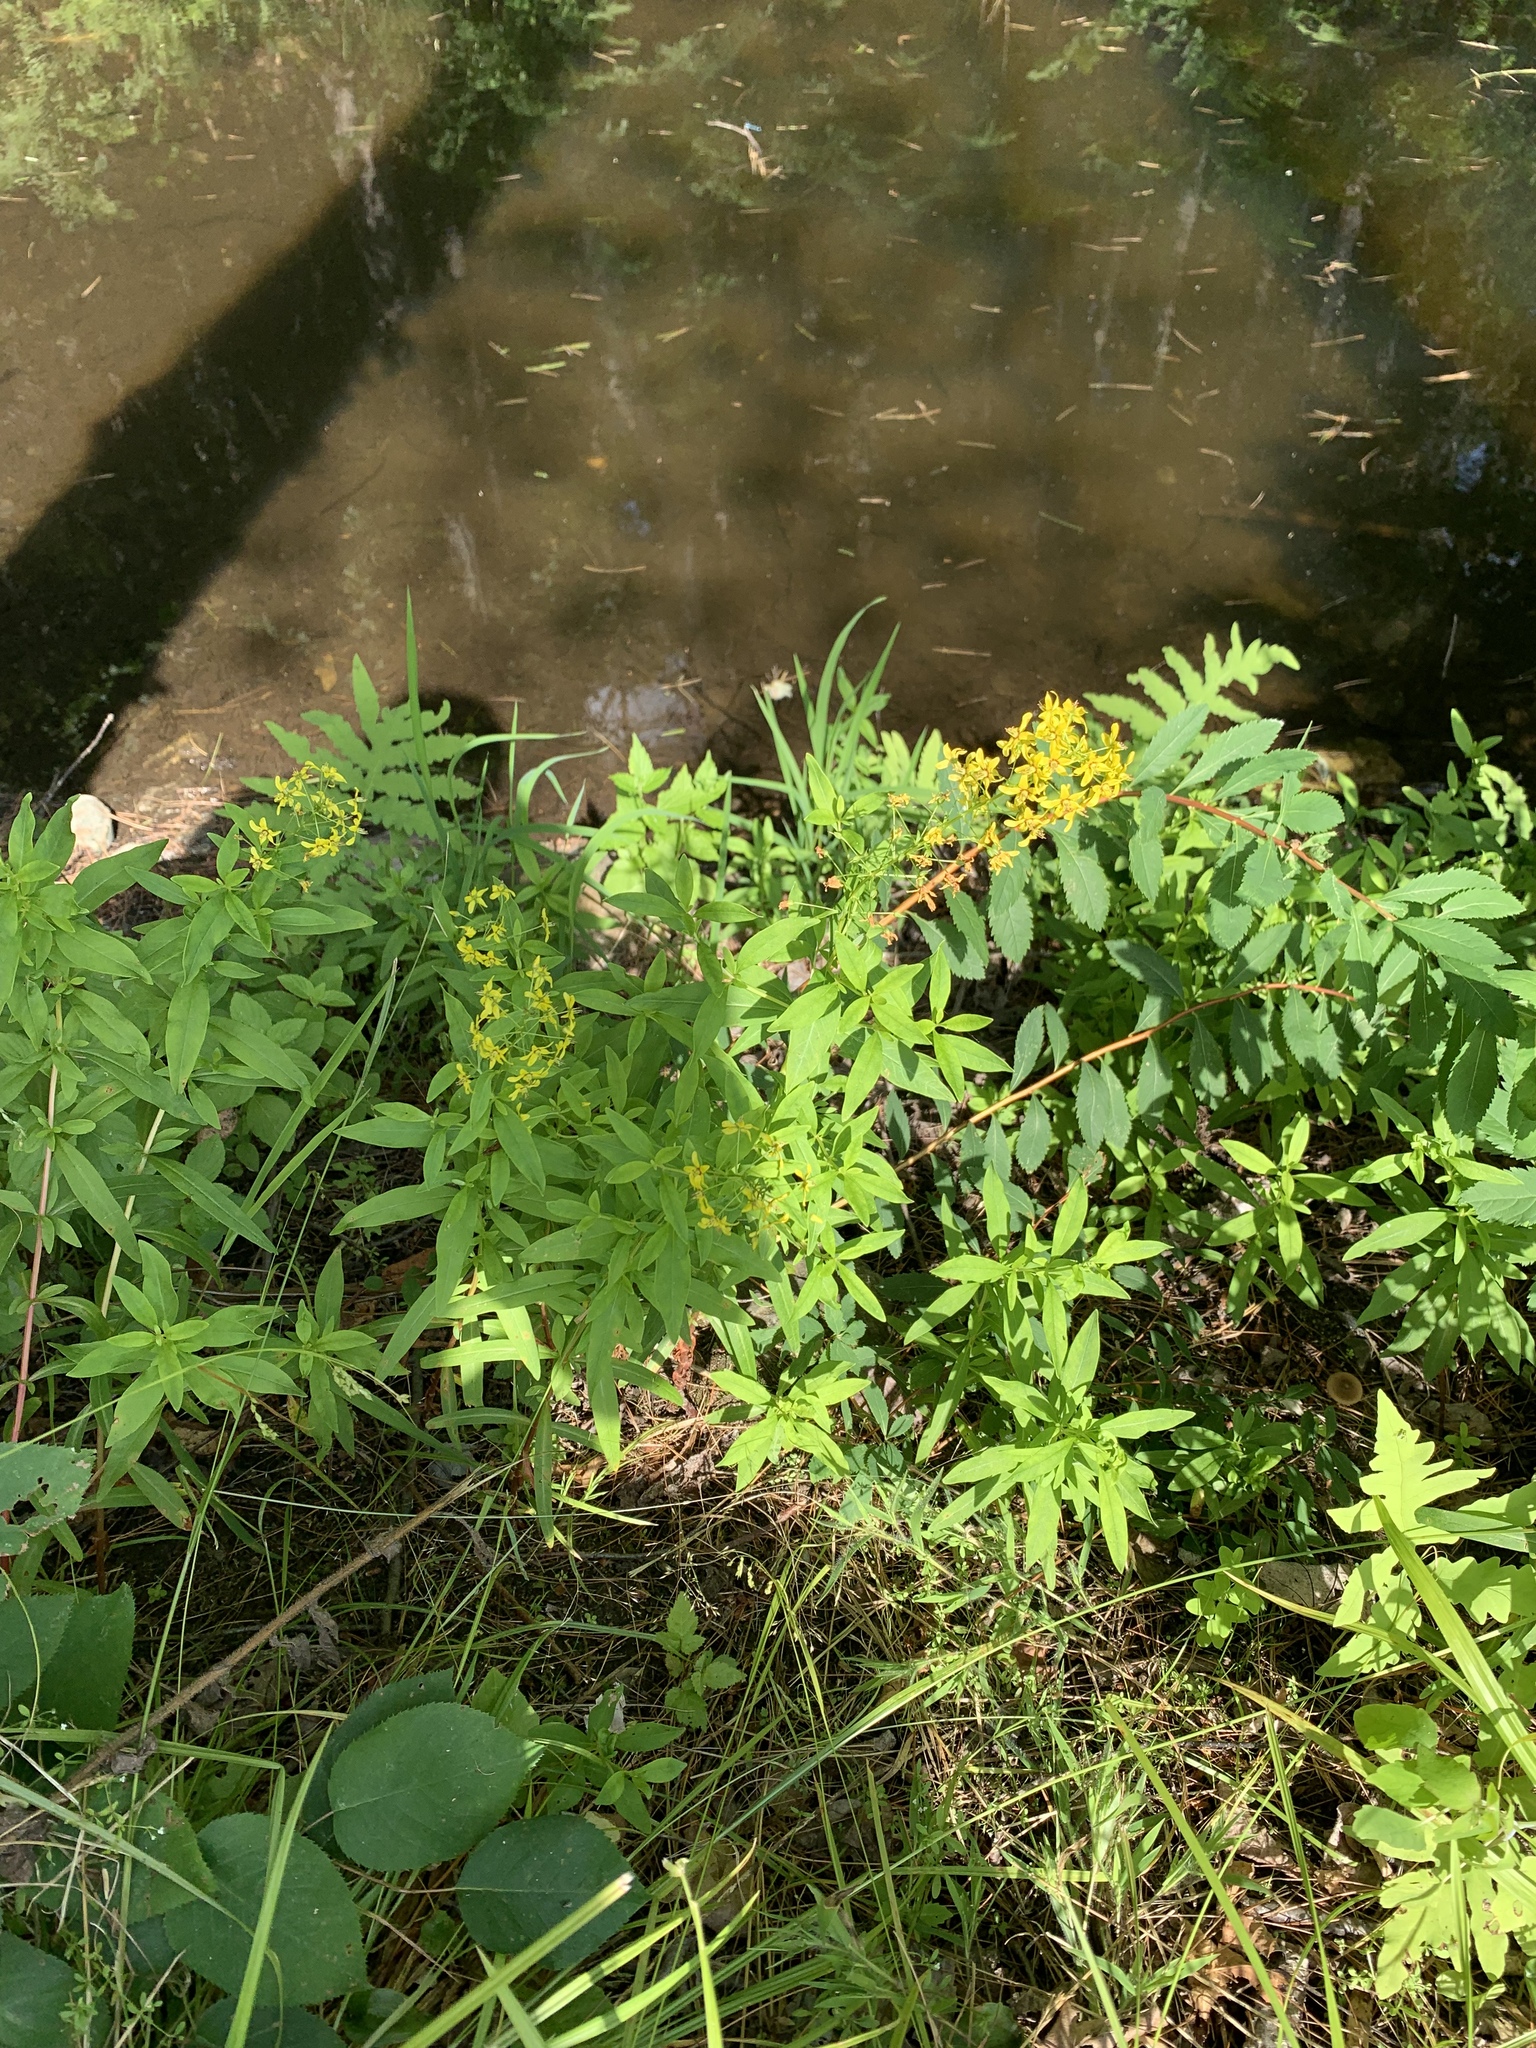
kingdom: Plantae
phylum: Tracheophyta
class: Magnoliopsida
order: Ericales
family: Primulaceae
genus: Lysimachia
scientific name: Lysimachia terrestris
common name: Lake loosestrife
